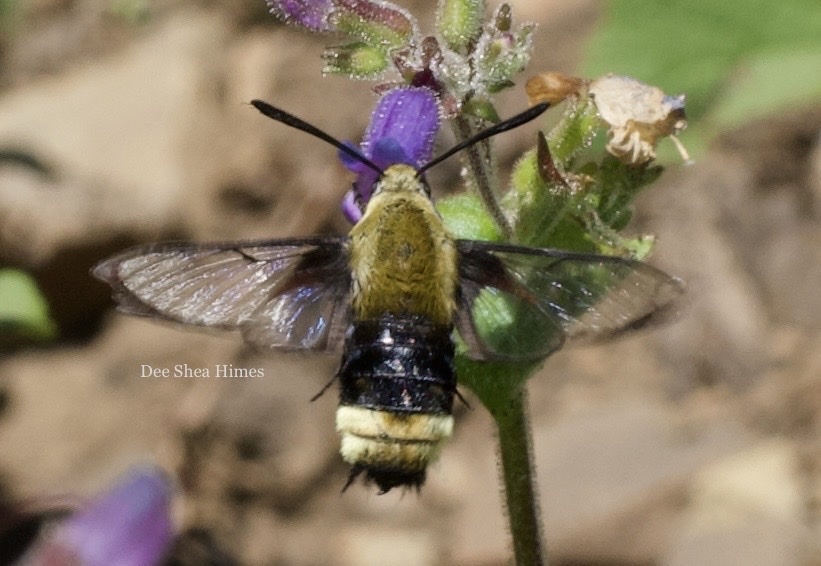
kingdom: Animalia
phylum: Arthropoda
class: Insecta
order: Lepidoptera
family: Sphingidae
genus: Hemaris
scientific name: Hemaris thetis
